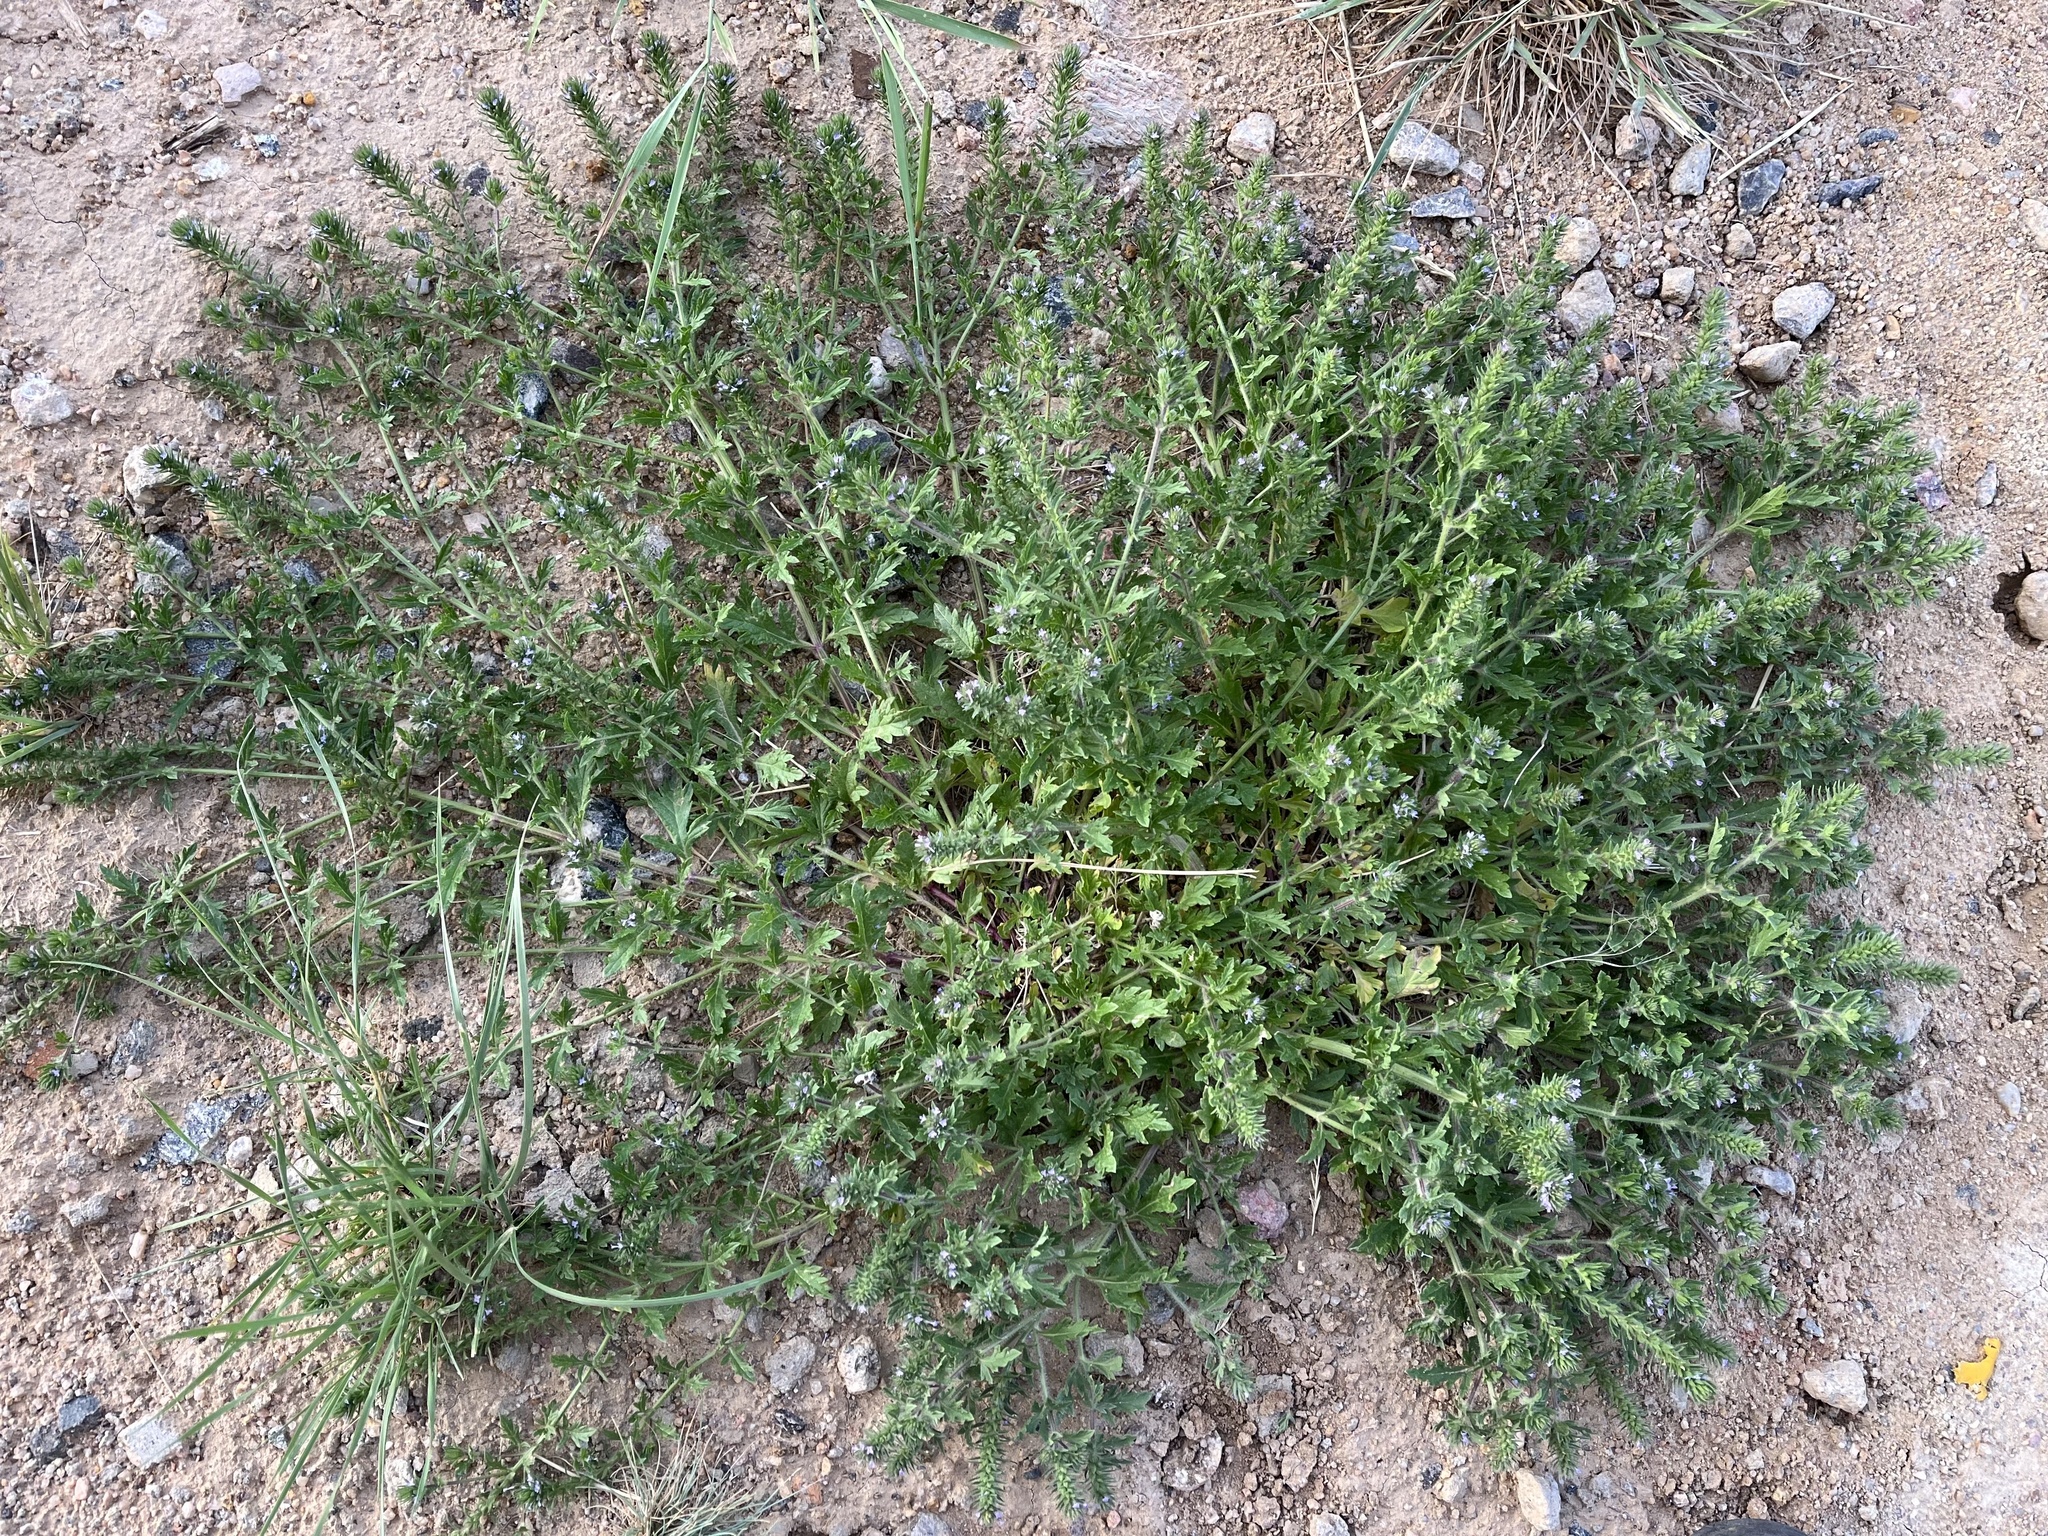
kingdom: Plantae
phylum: Tracheophyta
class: Magnoliopsida
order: Lamiales
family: Verbenaceae
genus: Verbena
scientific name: Verbena bracteata
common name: Bracted vervain
